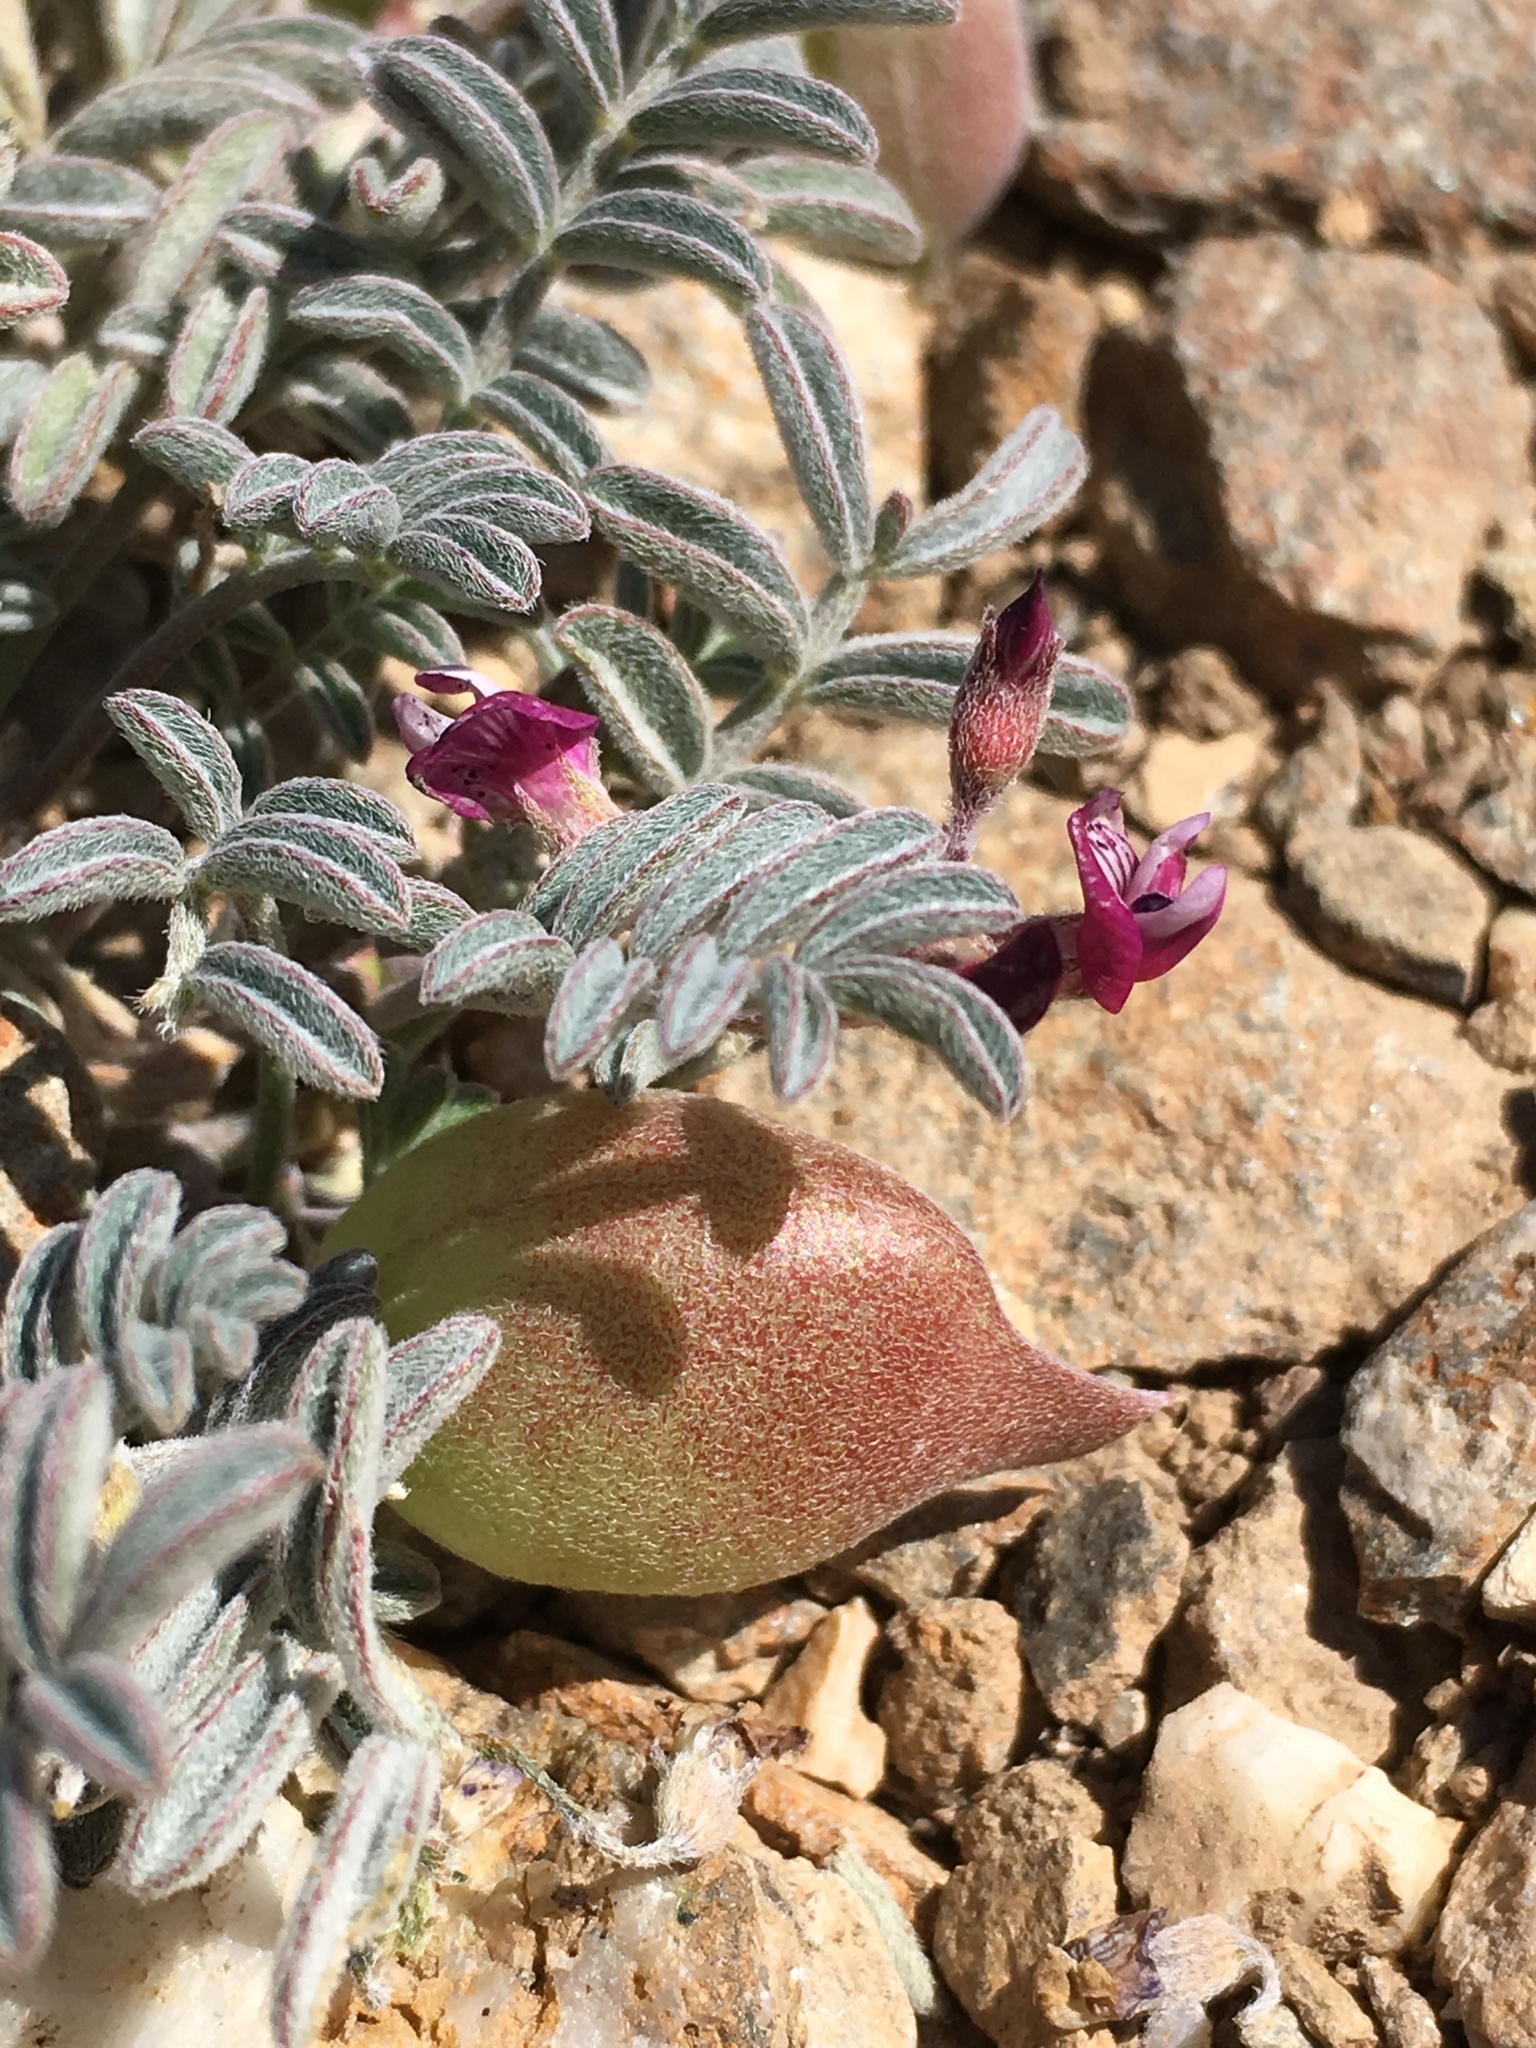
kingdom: Plantae
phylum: Tracheophyta
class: Magnoliopsida
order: Fabales
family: Fabaceae
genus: Astragalus
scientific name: Astragalus gilmanii
